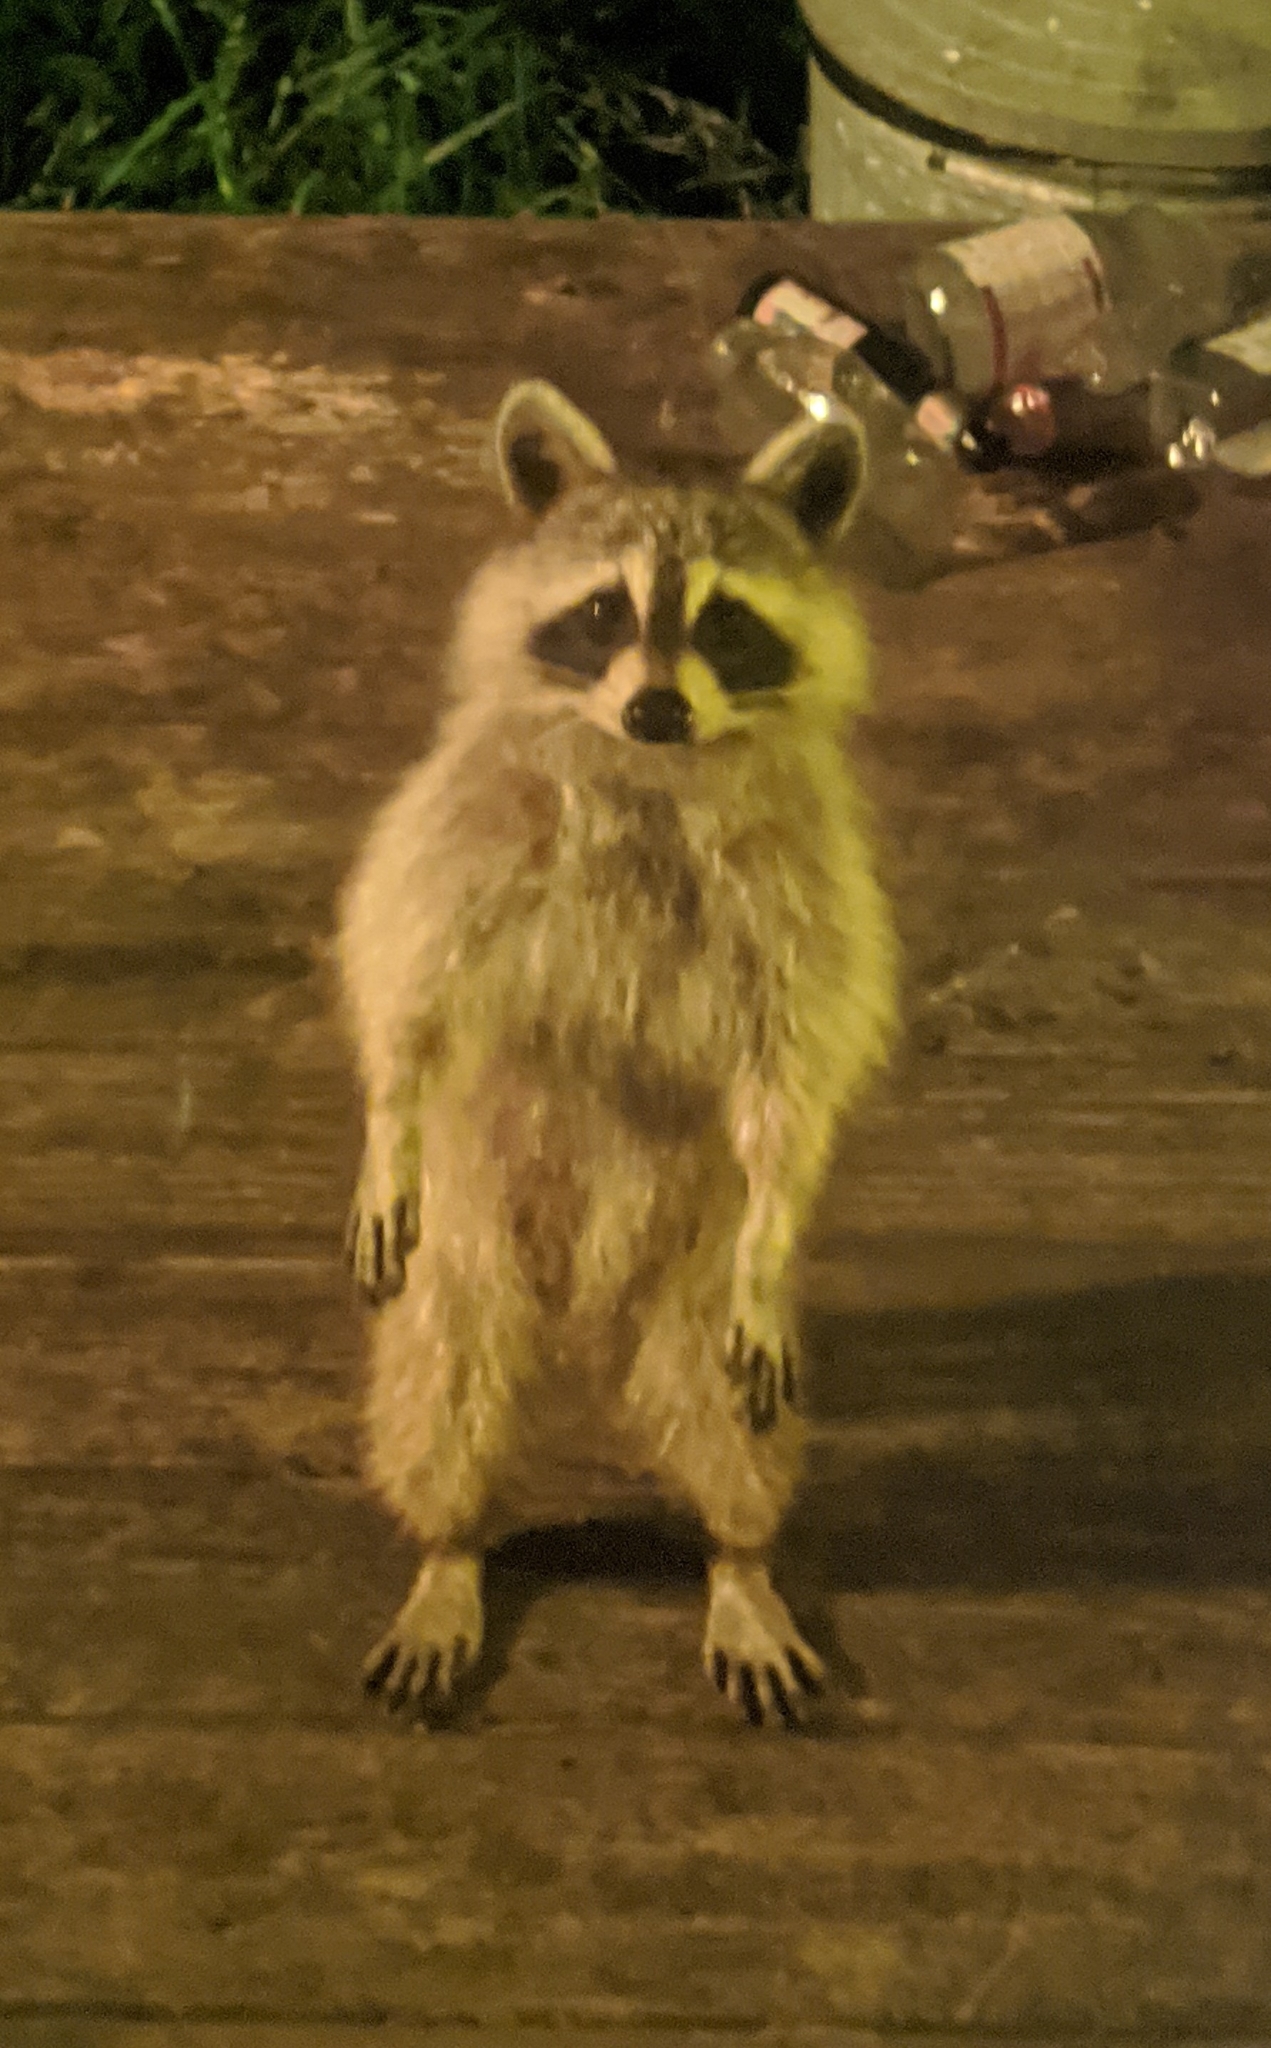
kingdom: Animalia
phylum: Chordata
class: Mammalia
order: Carnivora
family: Procyonidae
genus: Procyon
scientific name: Procyon lotor
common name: Raccoon
